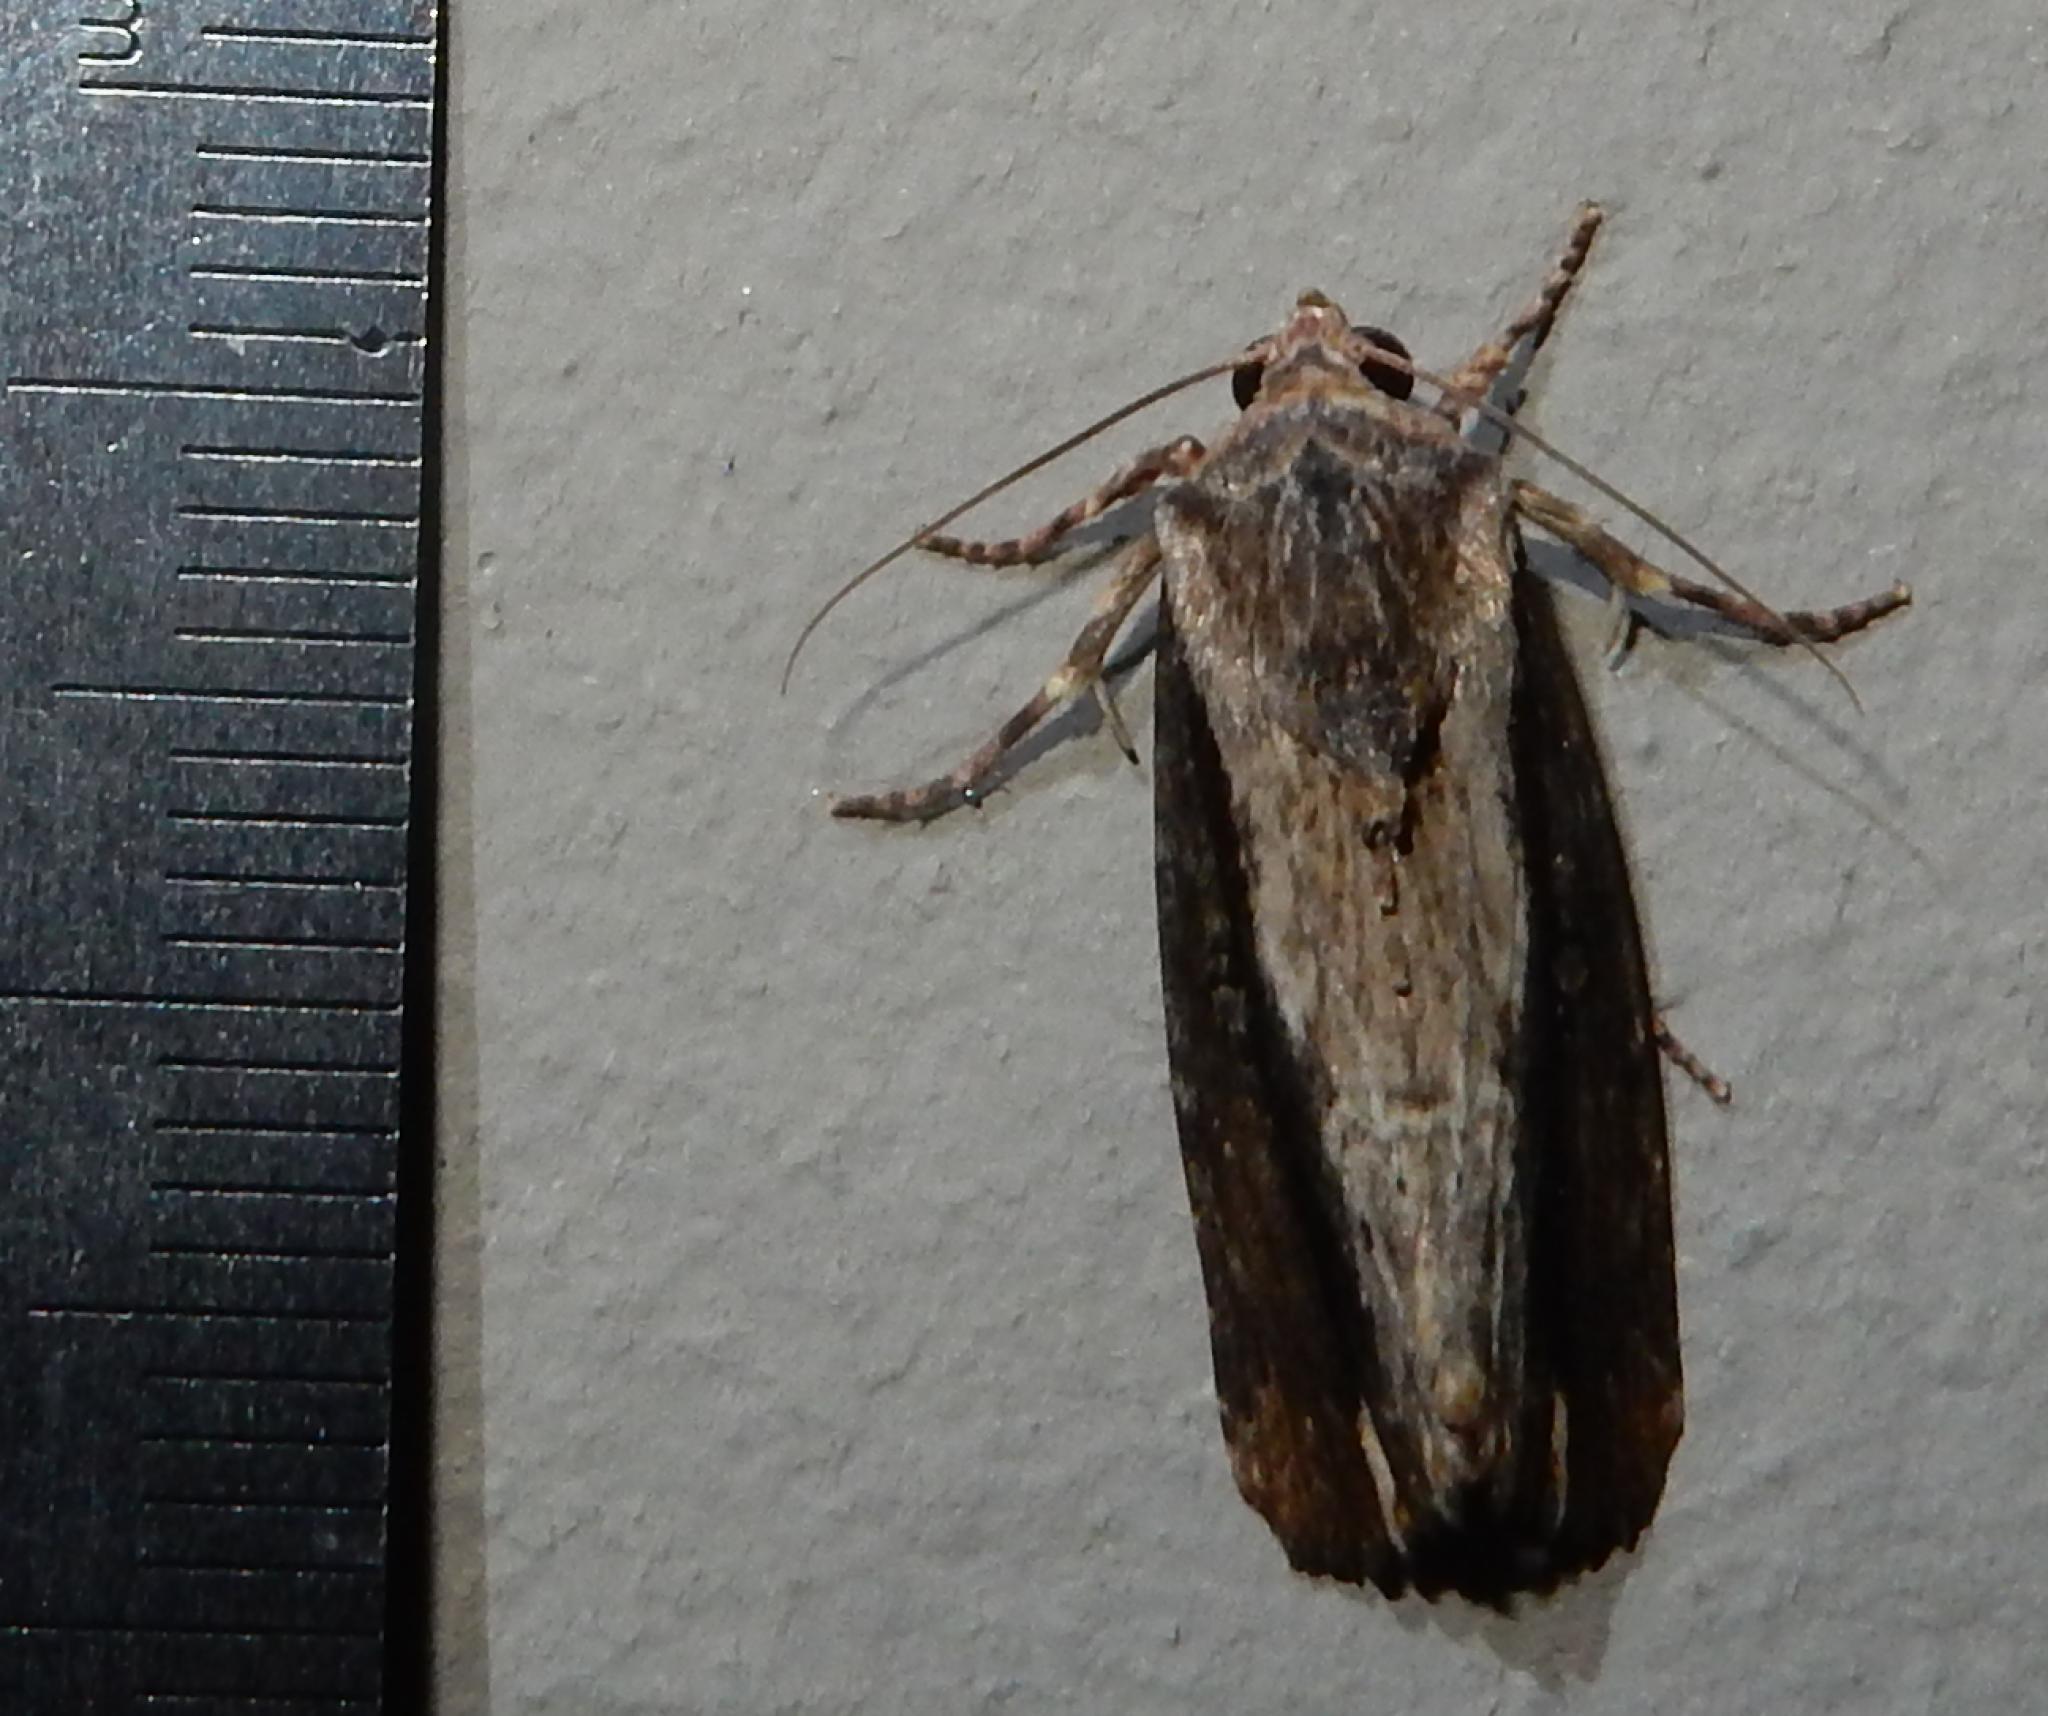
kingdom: Animalia
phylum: Arthropoda
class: Insecta
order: Lepidoptera
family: Noctuidae
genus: Pseudenargia
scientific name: Pseudenargia viettei
